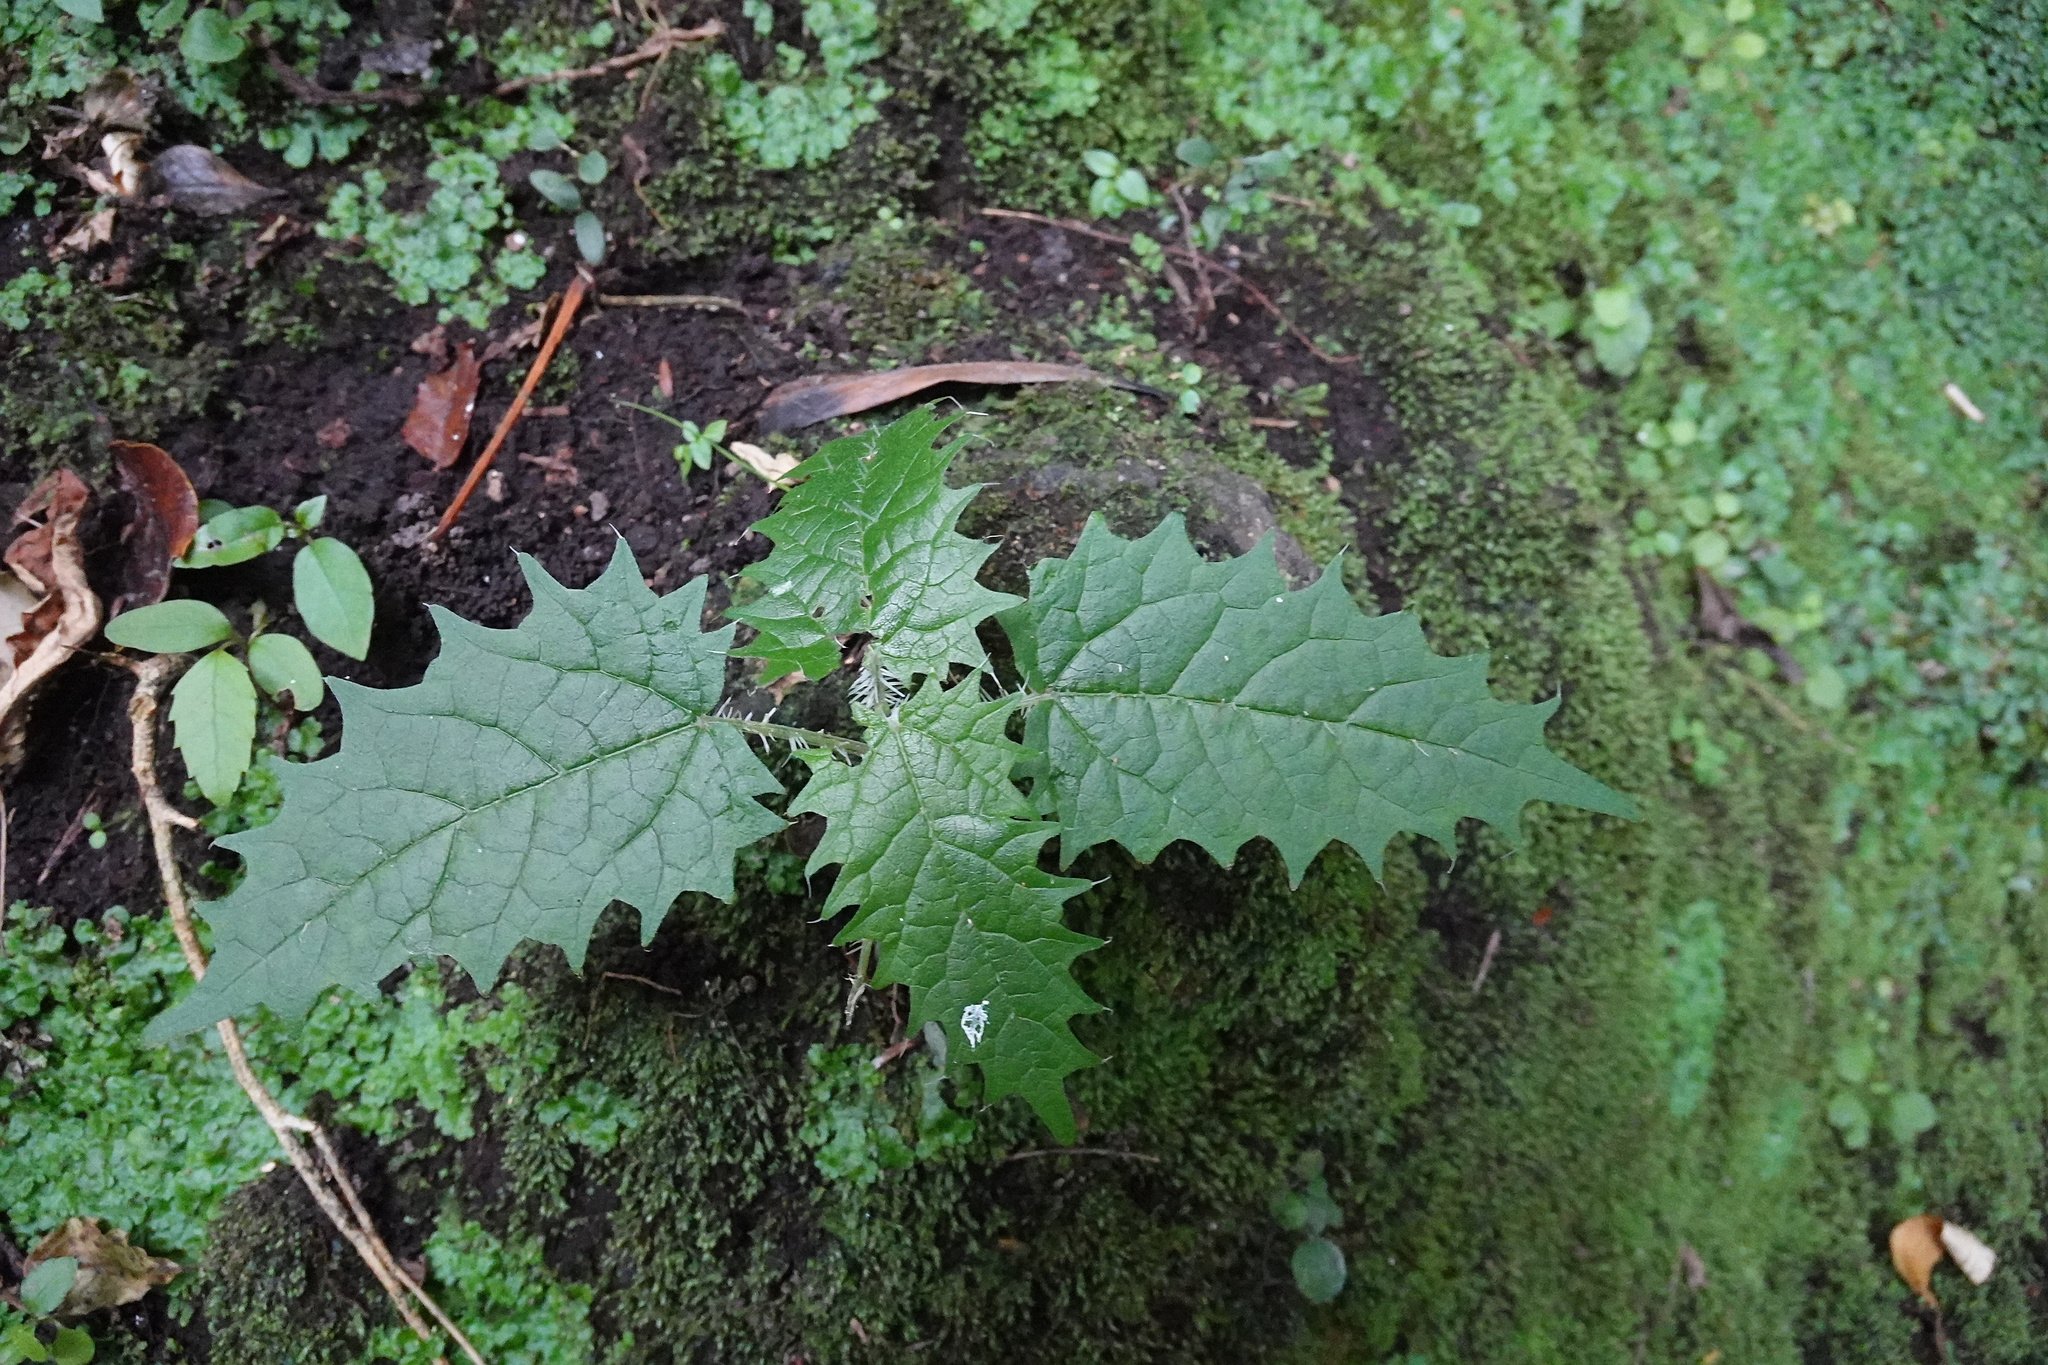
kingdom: Plantae
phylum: Tracheophyta
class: Magnoliopsida
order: Rosales
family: Urticaceae
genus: Urtica
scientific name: Urtica ferox
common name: Tree nettle
